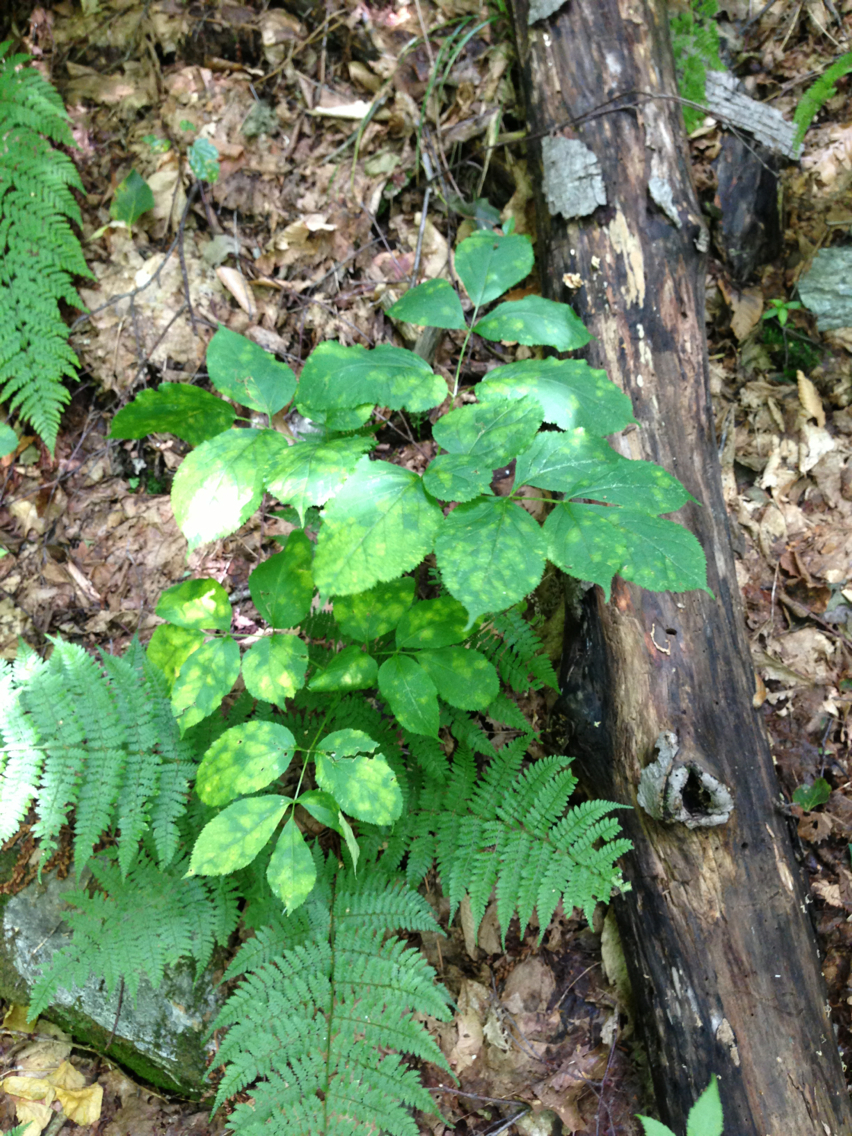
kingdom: Plantae
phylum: Tracheophyta
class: Magnoliopsida
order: Apiales
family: Araliaceae
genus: Aralia
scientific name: Aralia nudicaulis
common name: Wild sarsaparilla
